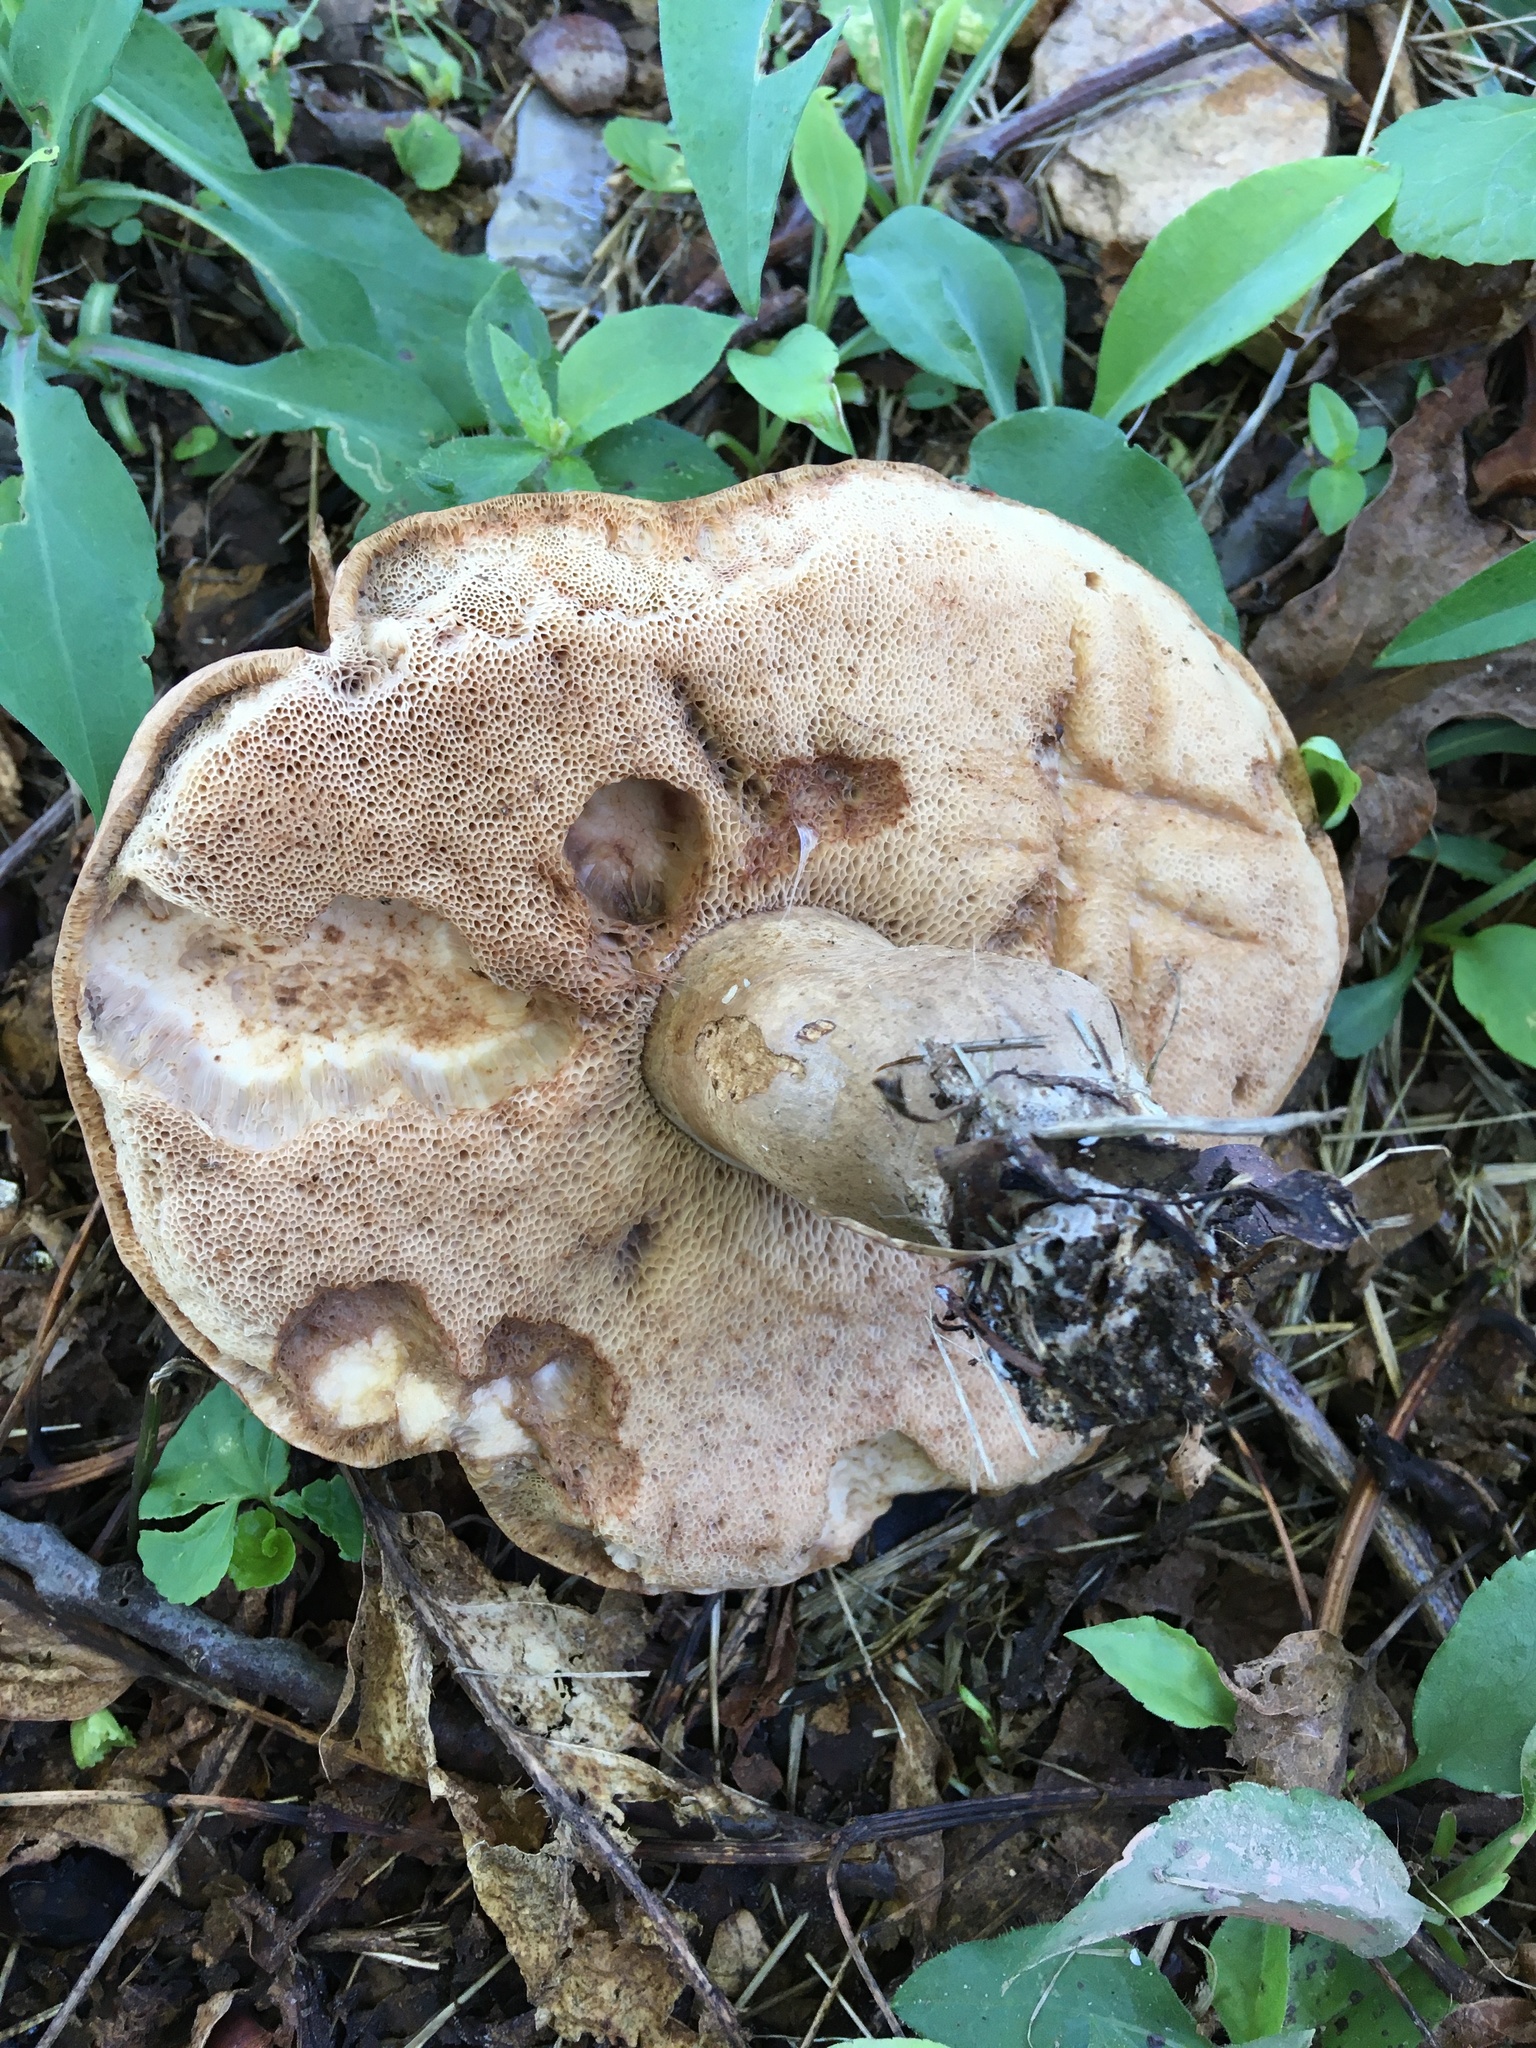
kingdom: Fungi
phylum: Basidiomycota
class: Agaricomycetes
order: Boletales
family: Boletaceae
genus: Tylopilus
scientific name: Tylopilus ferrugineus
